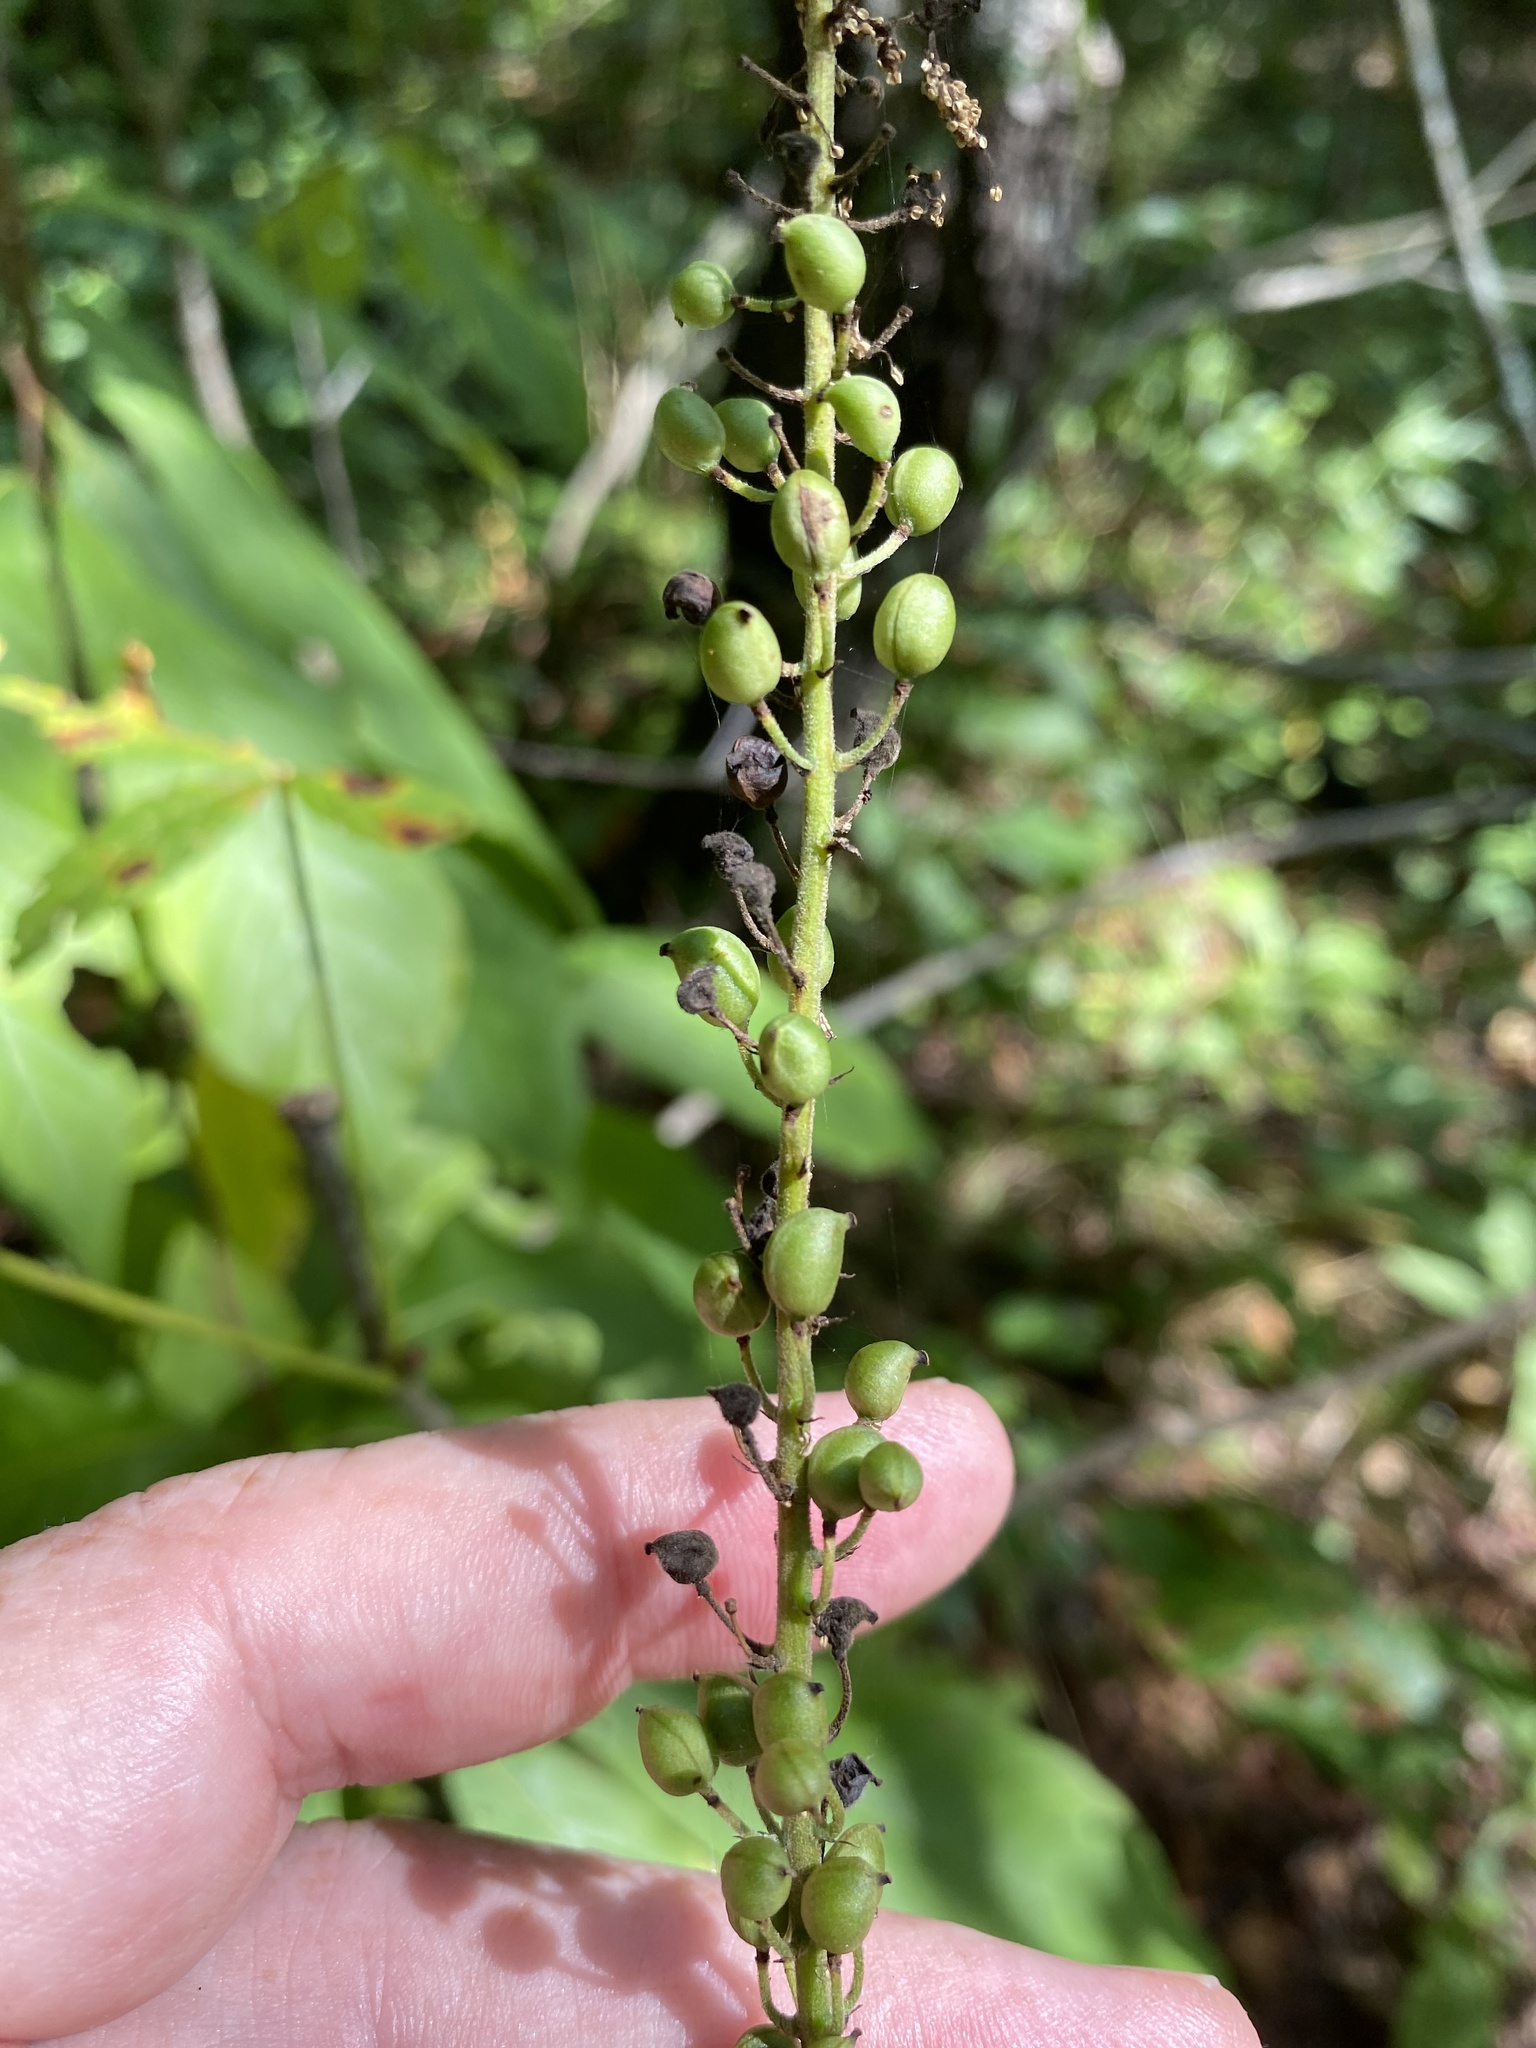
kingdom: Plantae
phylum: Tracheophyta
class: Magnoliopsida
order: Ranunculales
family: Ranunculaceae
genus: Actaea
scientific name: Actaea racemosa
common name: Black cohosh
